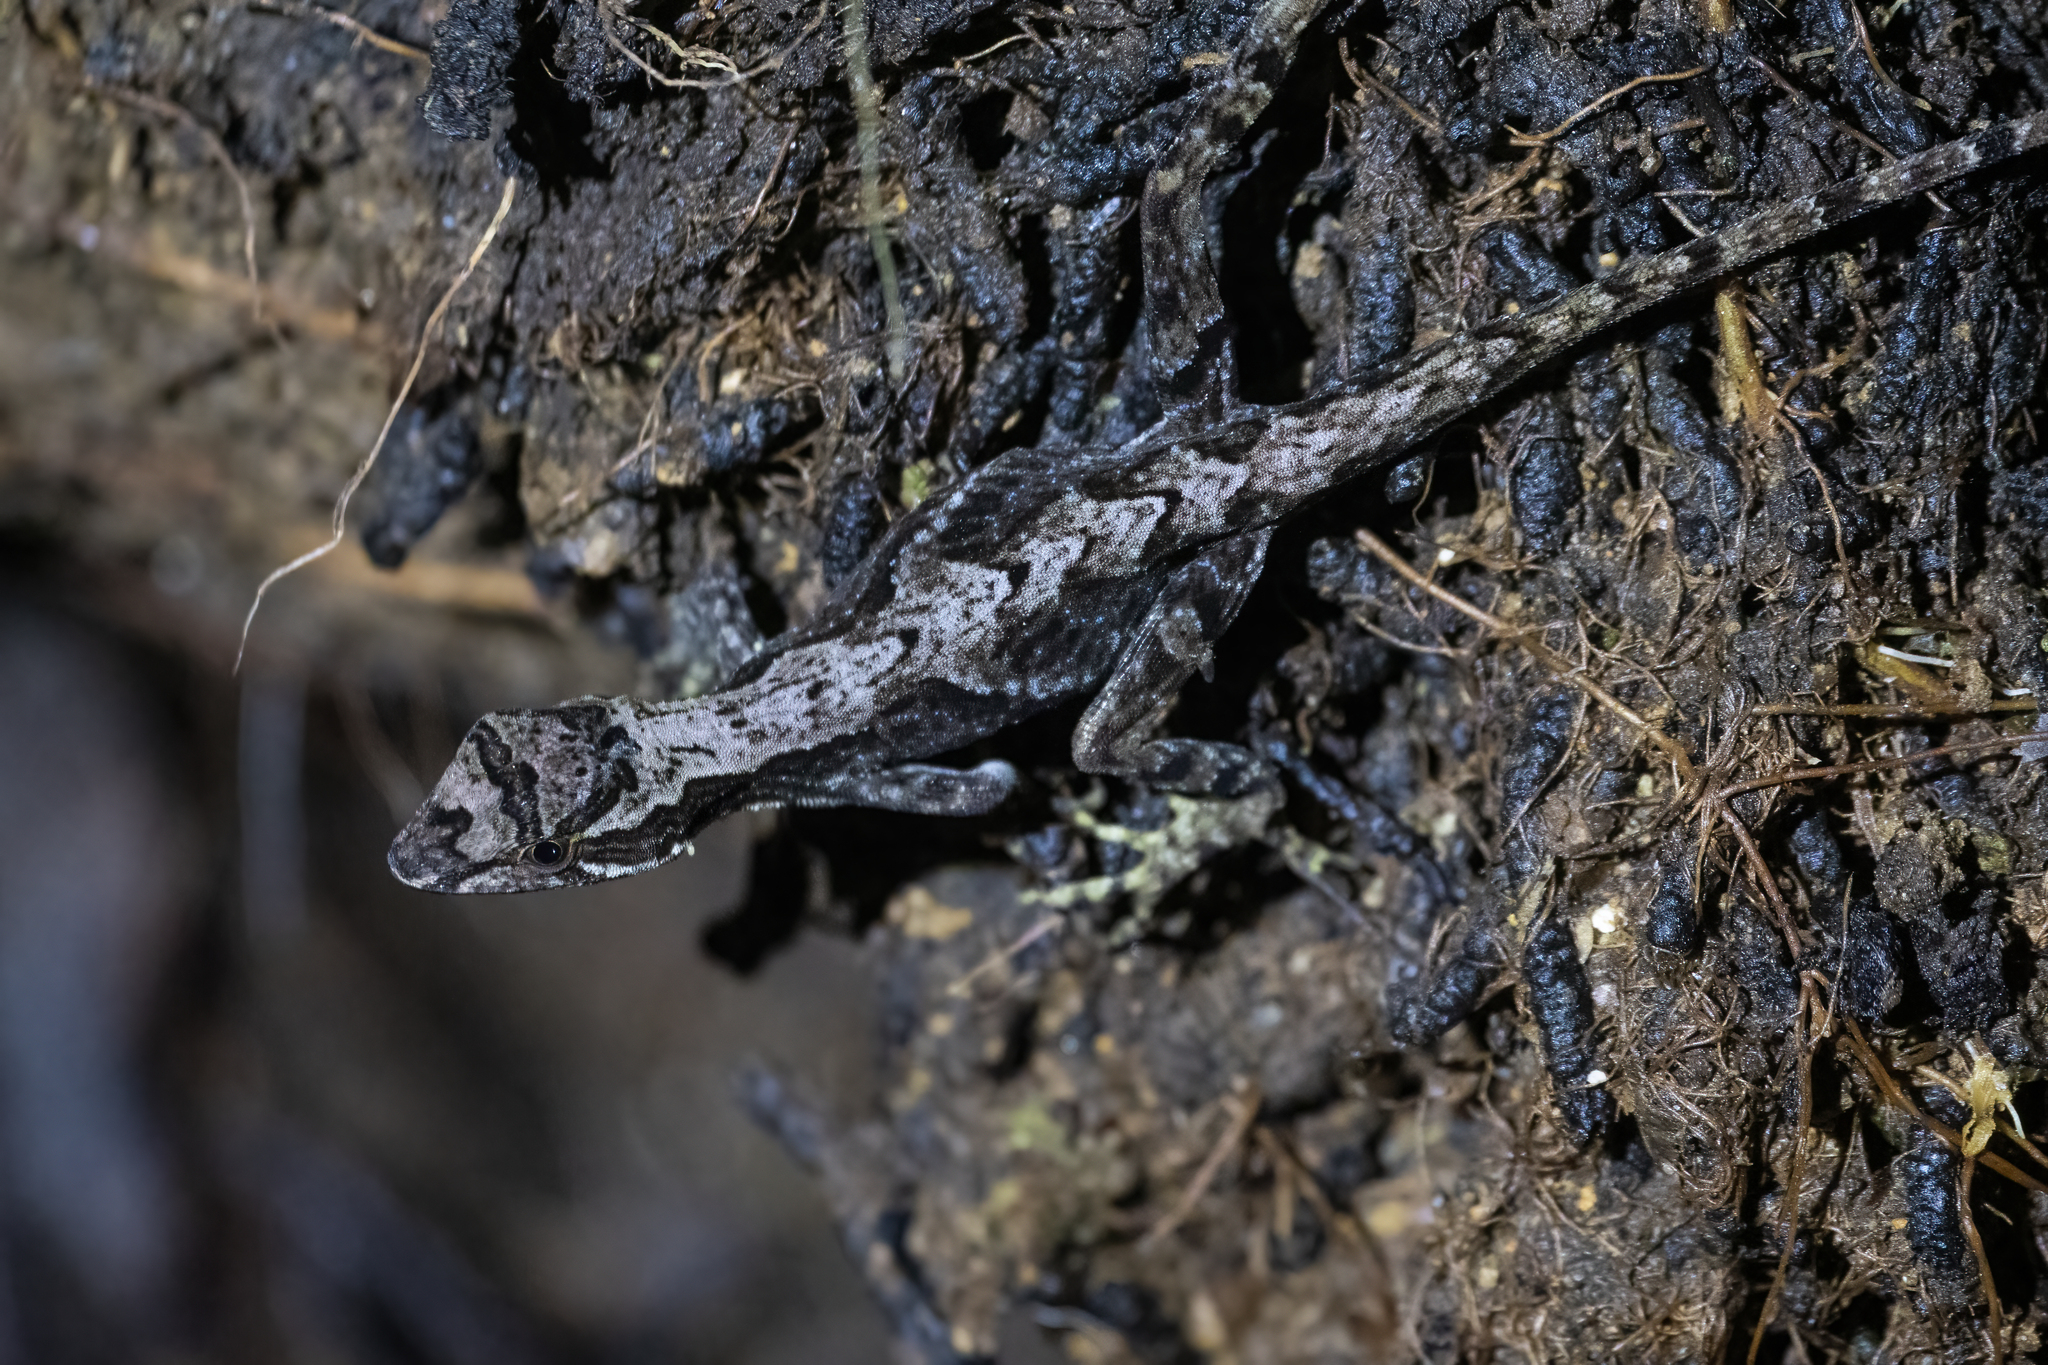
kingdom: Animalia
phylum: Chordata
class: Squamata
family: Dactyloidae
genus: Anolis
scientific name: Anolis tropidolepis
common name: Swift anole
